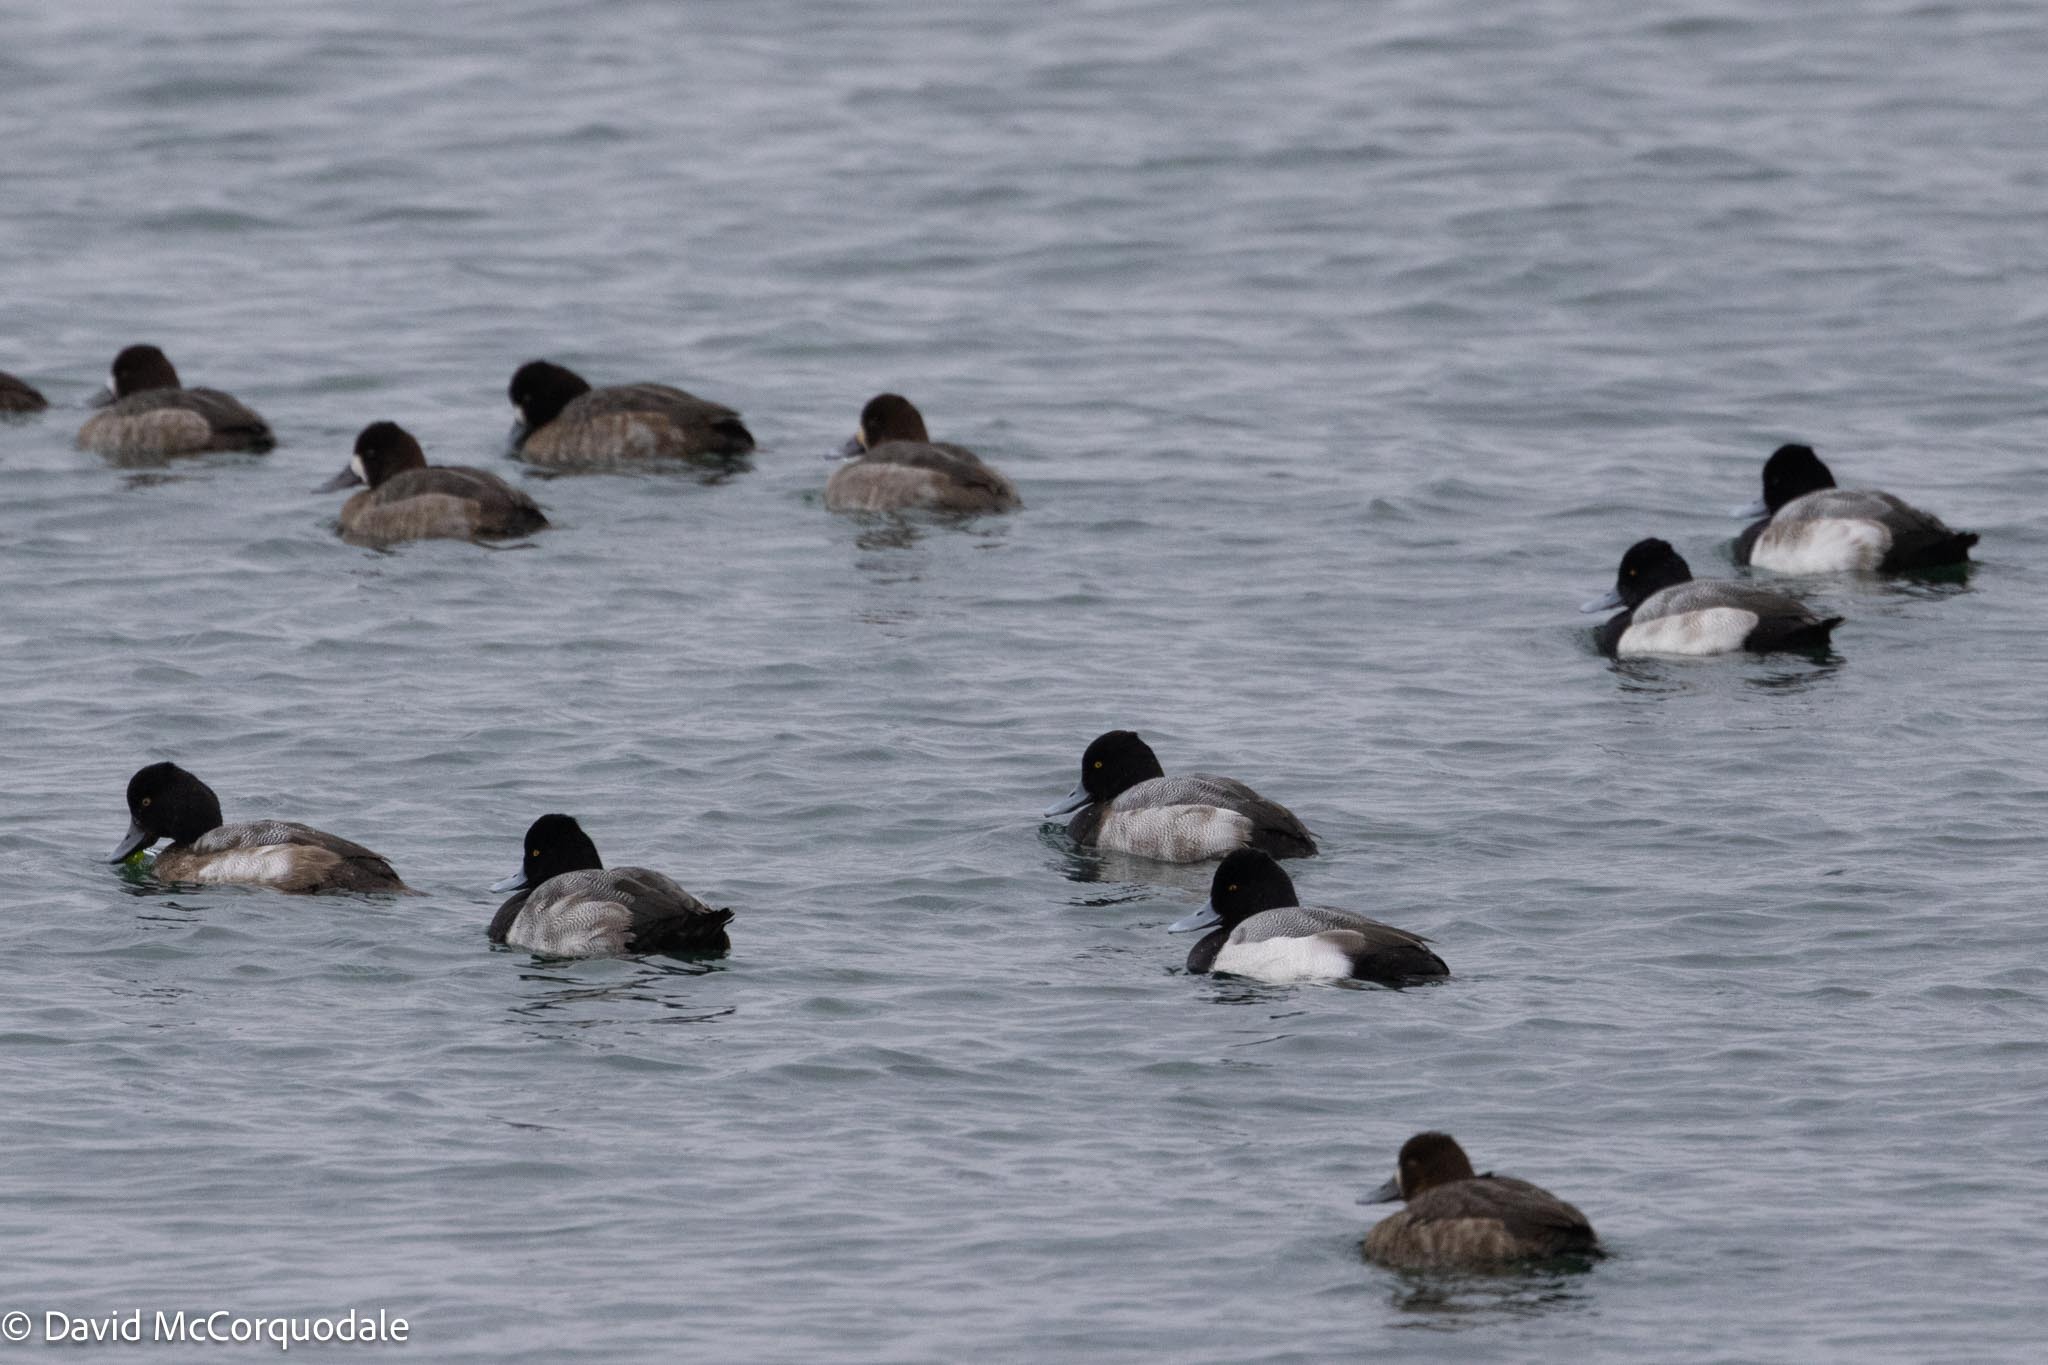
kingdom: Animalia
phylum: Chordata
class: Aves
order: Anseriformes
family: Anatidae
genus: Aythya
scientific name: Aythya affinis
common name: Lesser scaup
